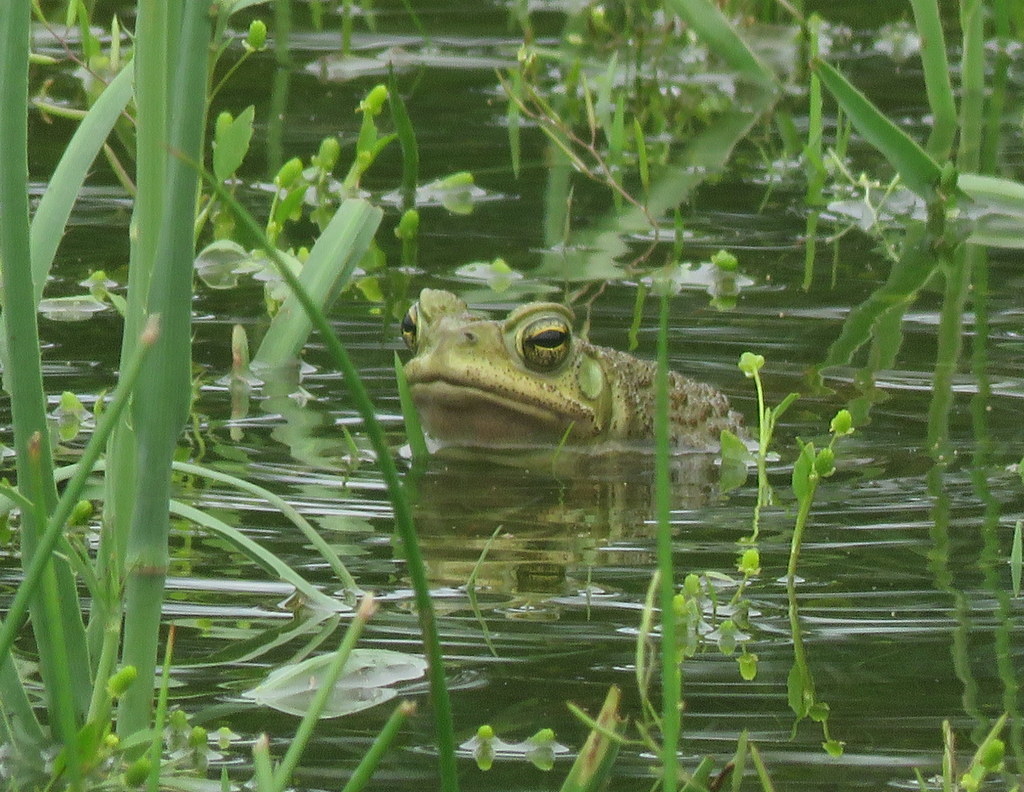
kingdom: Animalia
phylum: Chordata
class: Amphibia
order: Anura
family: Bufonidae
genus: Rhinella
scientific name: Rhinella arenarum
